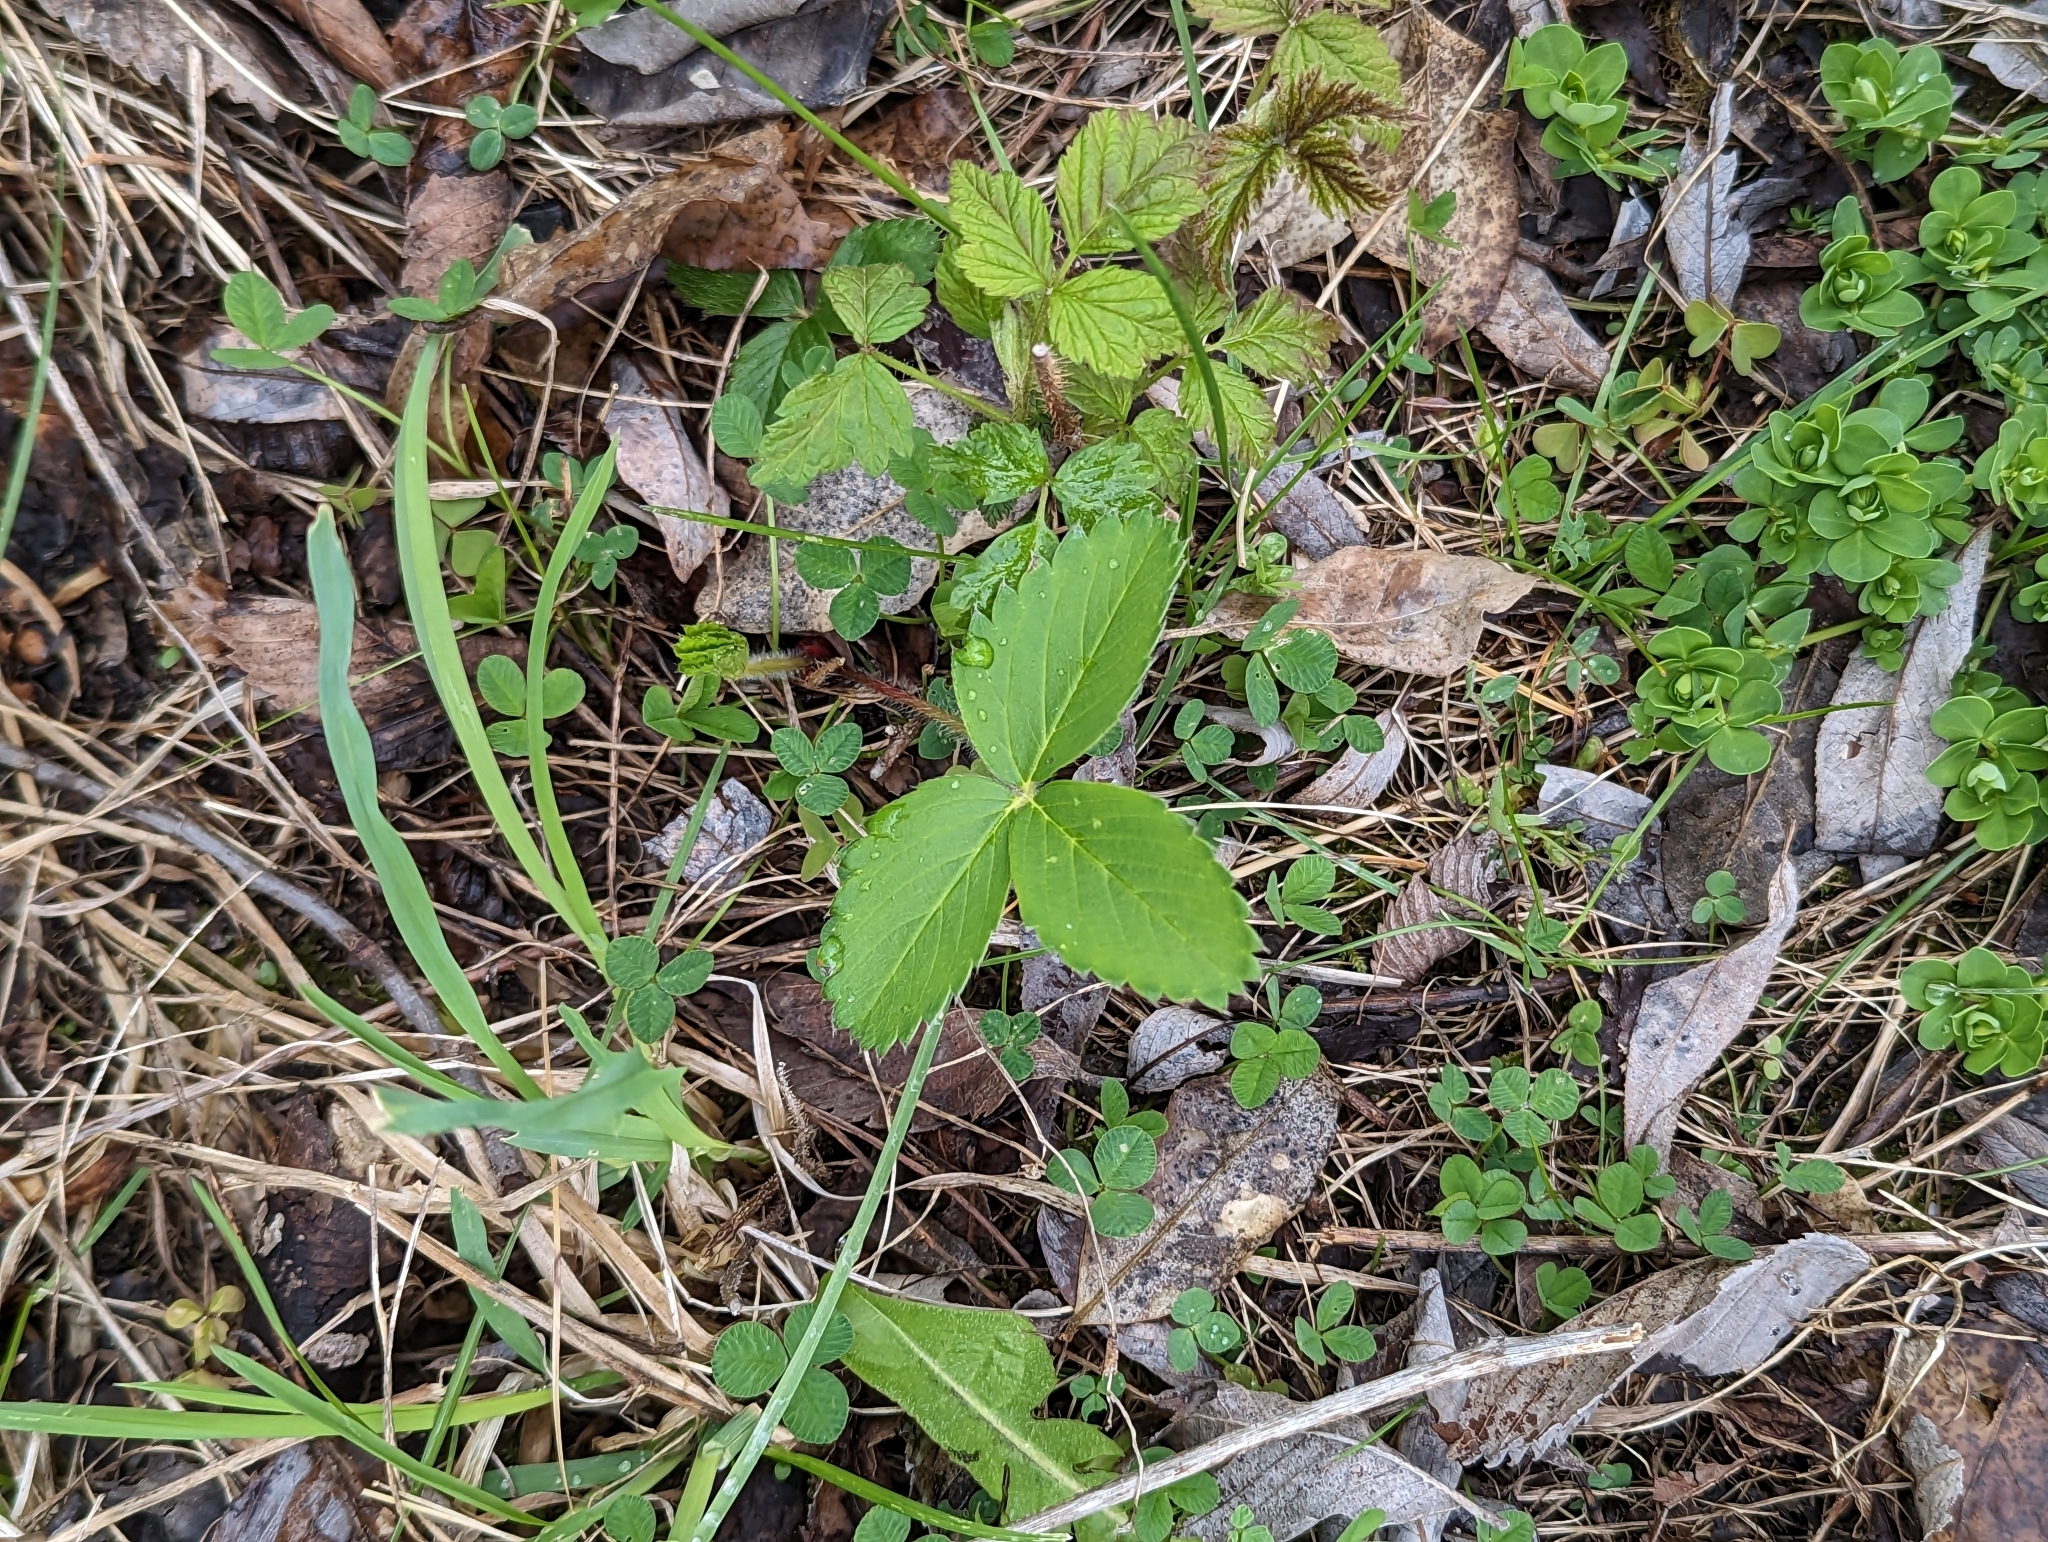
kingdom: Plantae
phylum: Tracheophyta
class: Magnoliopsida
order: Rosales
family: Rosaceae
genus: Fragaria
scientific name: Fragaria virginiana
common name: Thickleaved wild strawberry
